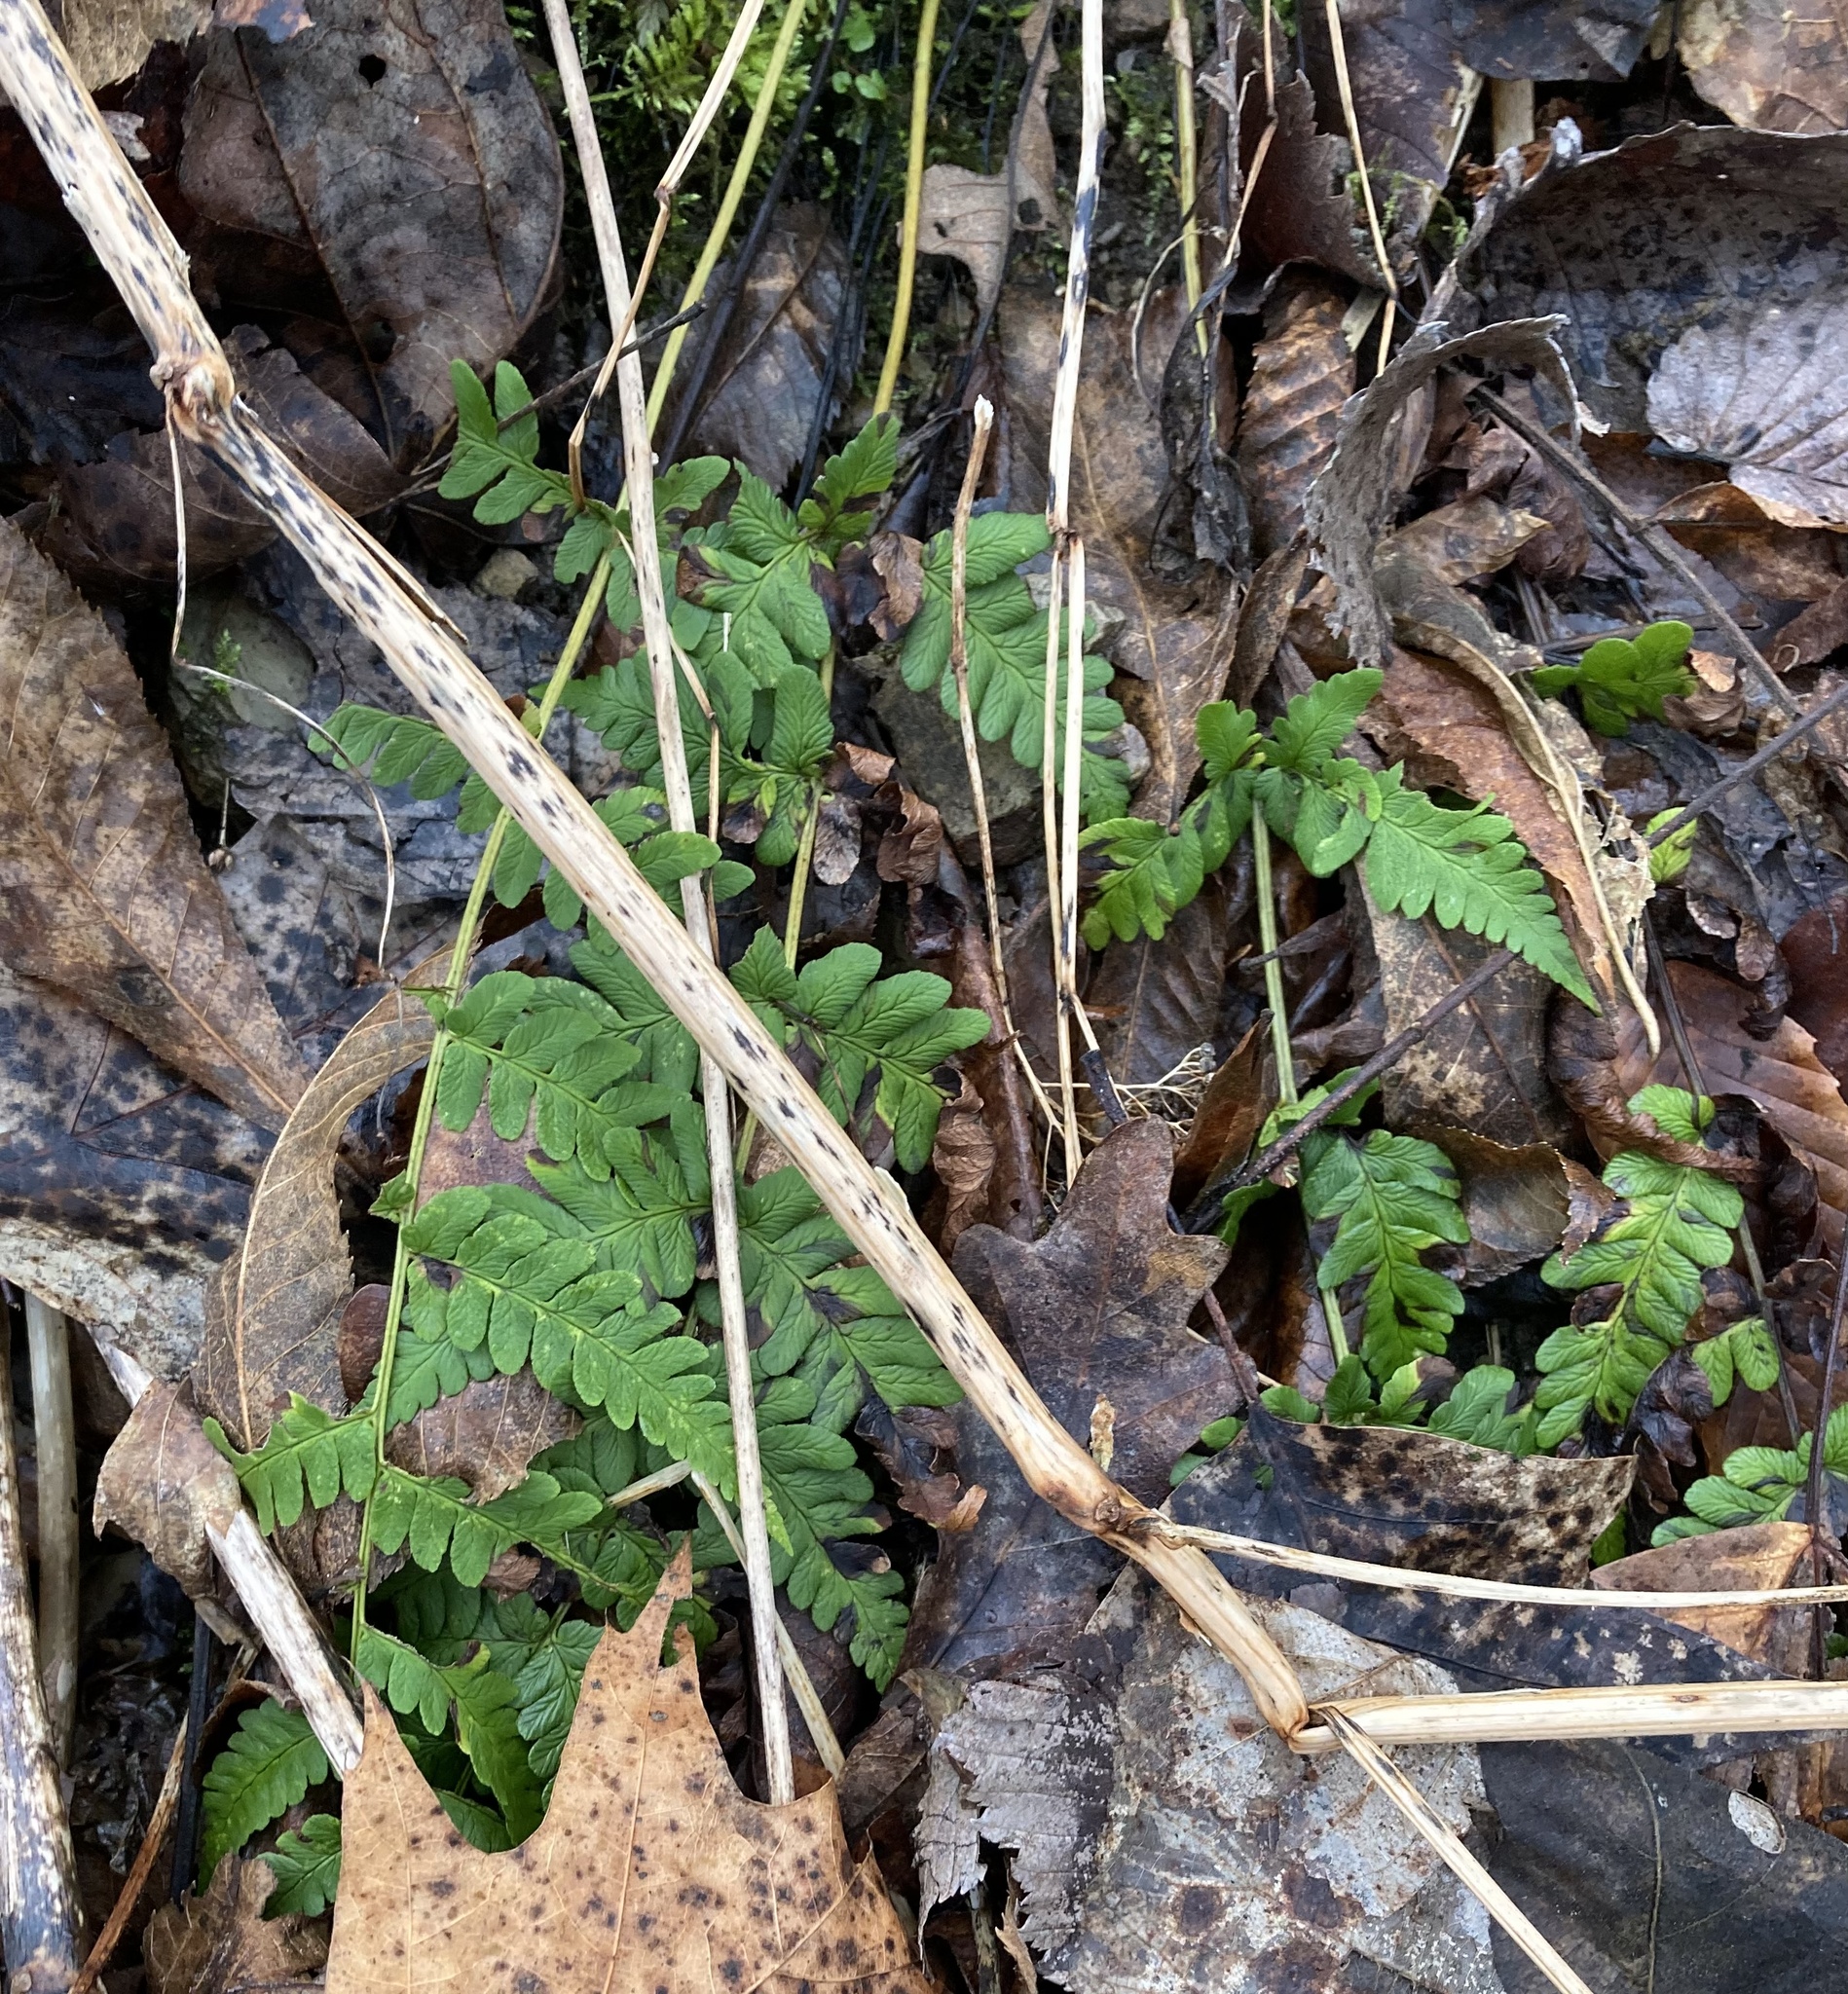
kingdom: Plantae
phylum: Tracheophyta
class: Polypodiopsida
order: Polypodiales
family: Dryopteridaceae
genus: Dryopteris
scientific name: Dryopteris marginalis
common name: Marginal wood fern
